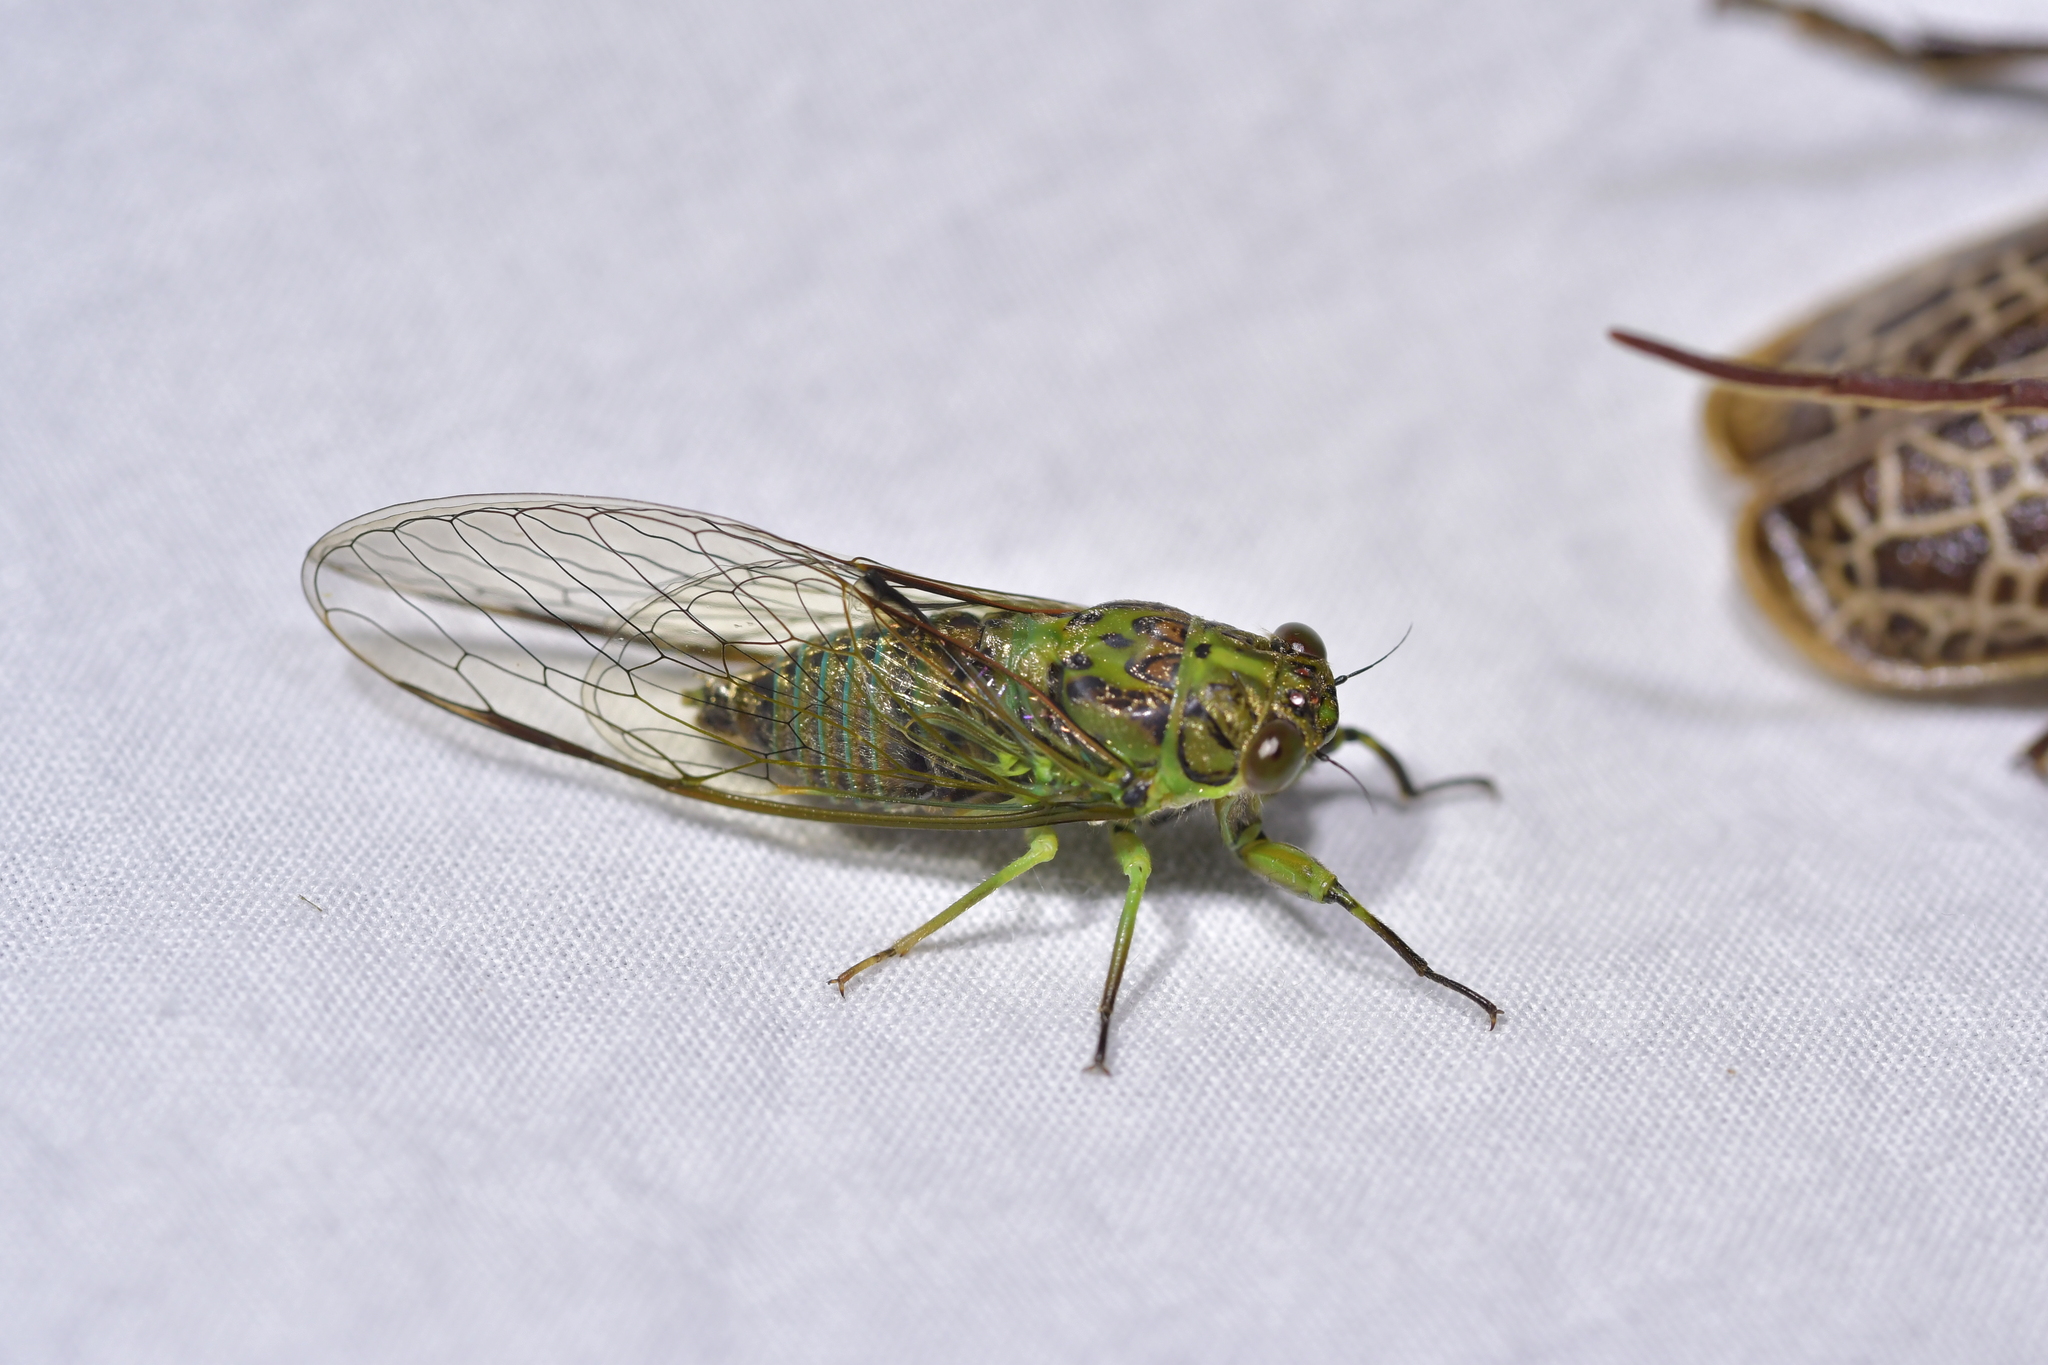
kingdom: Animalia
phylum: Arthropoda
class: Insecta
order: Hemiptera
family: Cicadidae
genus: Kikihia
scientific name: Kikihia scutellaris
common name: Lesser bronze cicada
